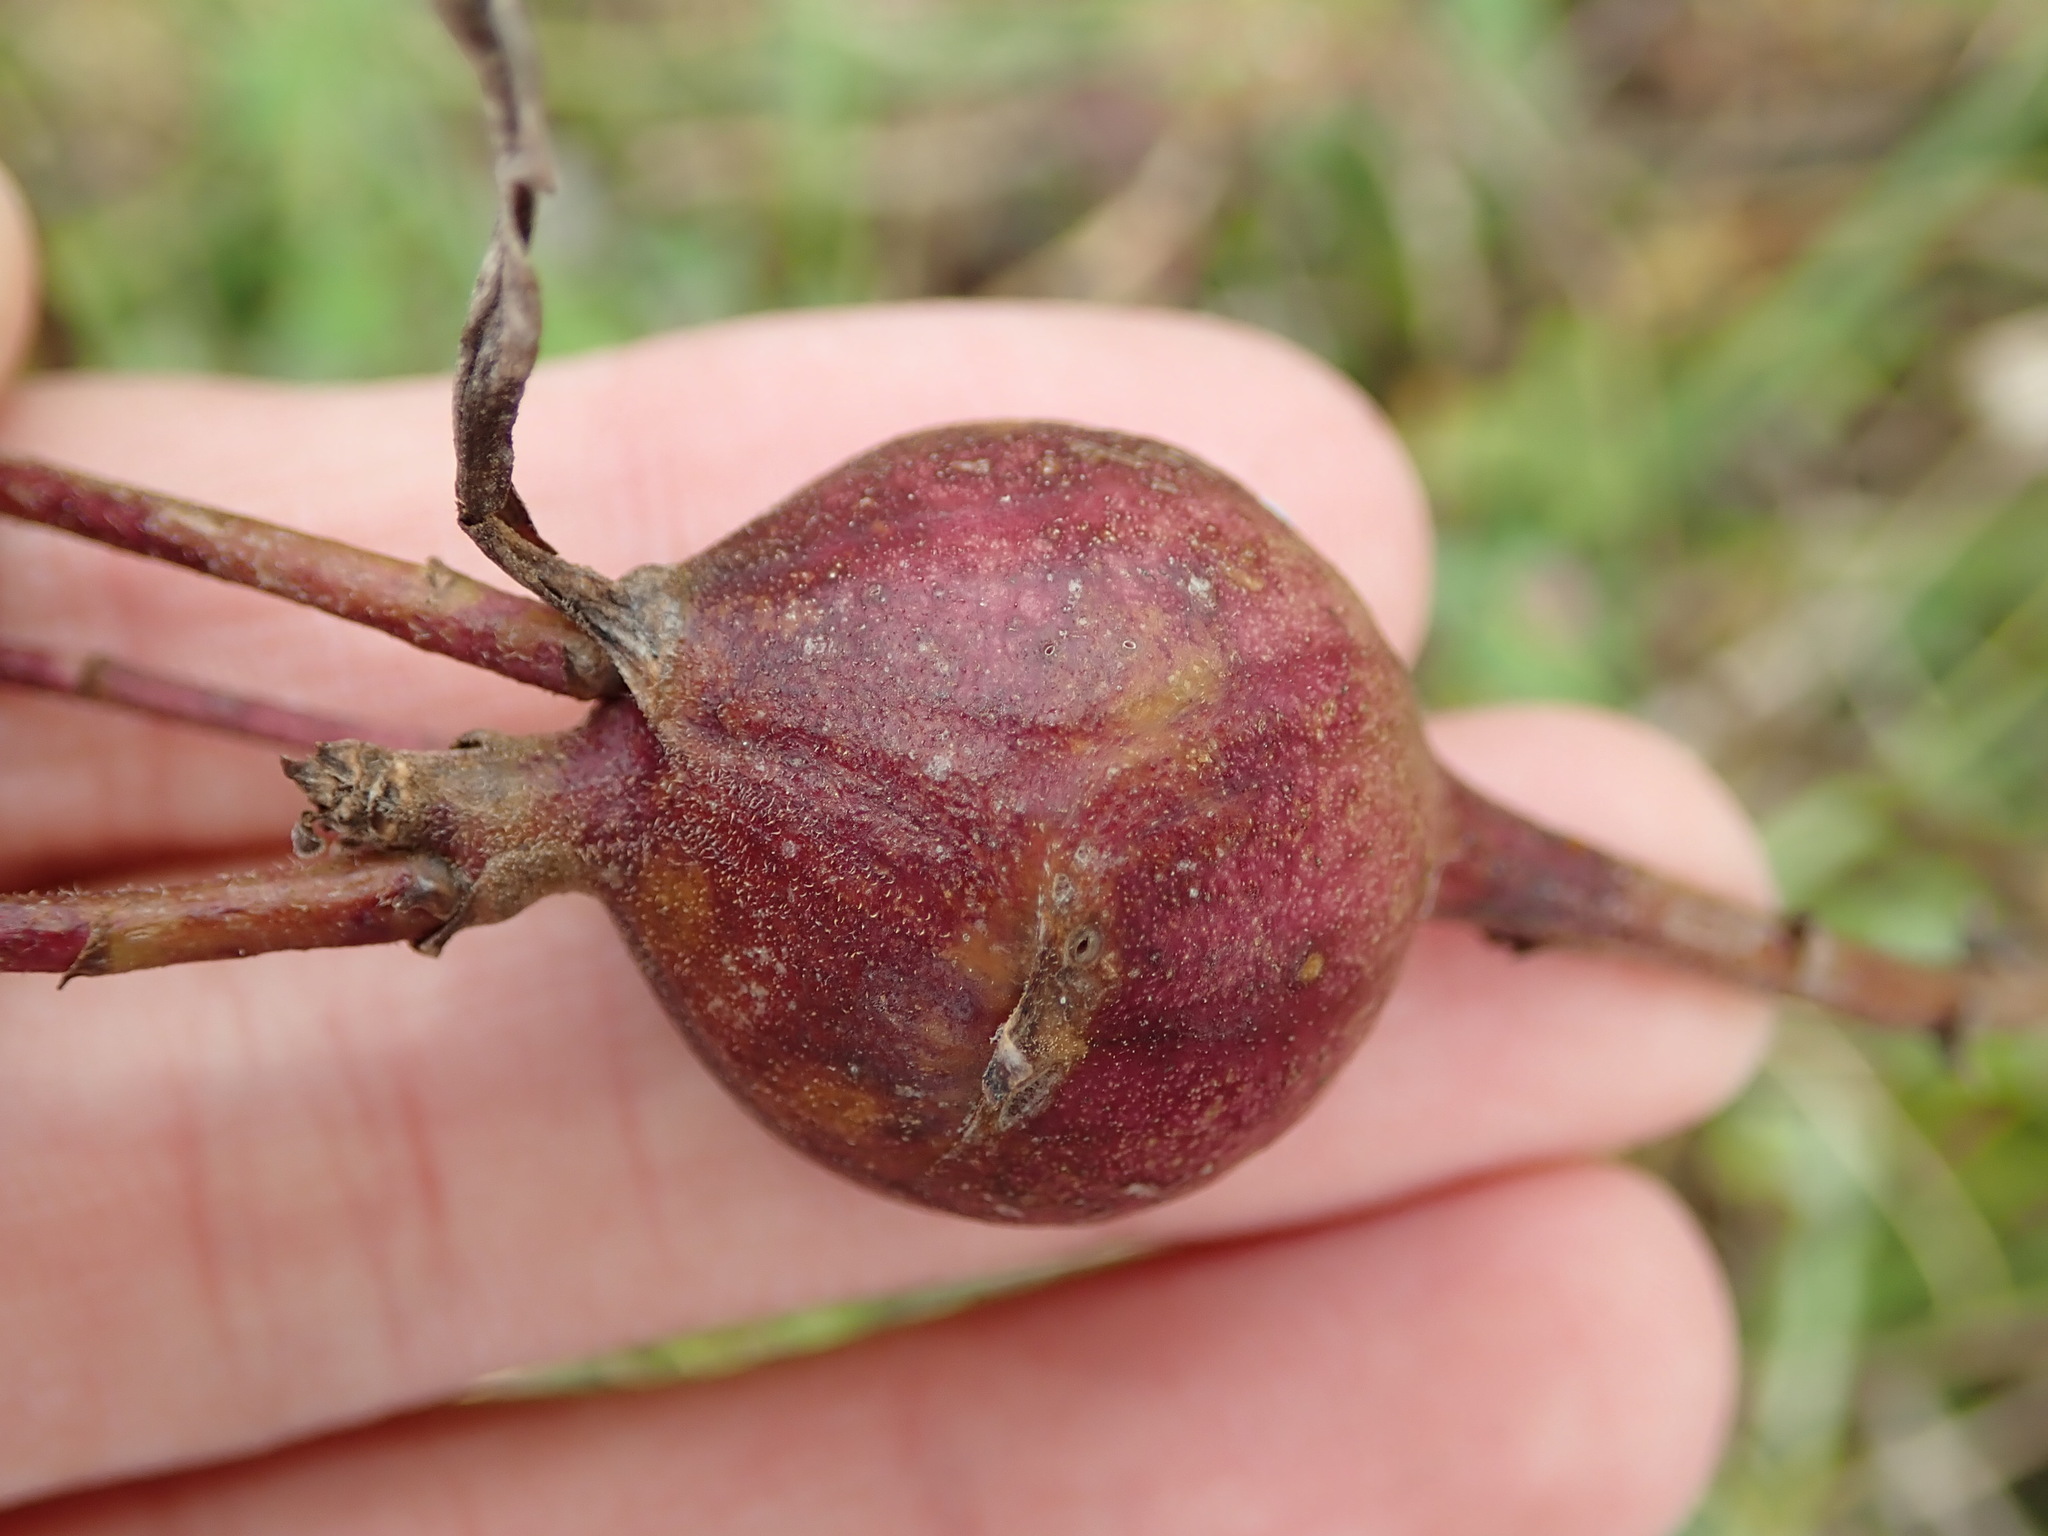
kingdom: Animalia
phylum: Arthropoda
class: Insecta
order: Diptera
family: Tephritidae
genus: Eurosta
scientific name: Eurosta solidaginis
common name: Goldenrod gall fly
